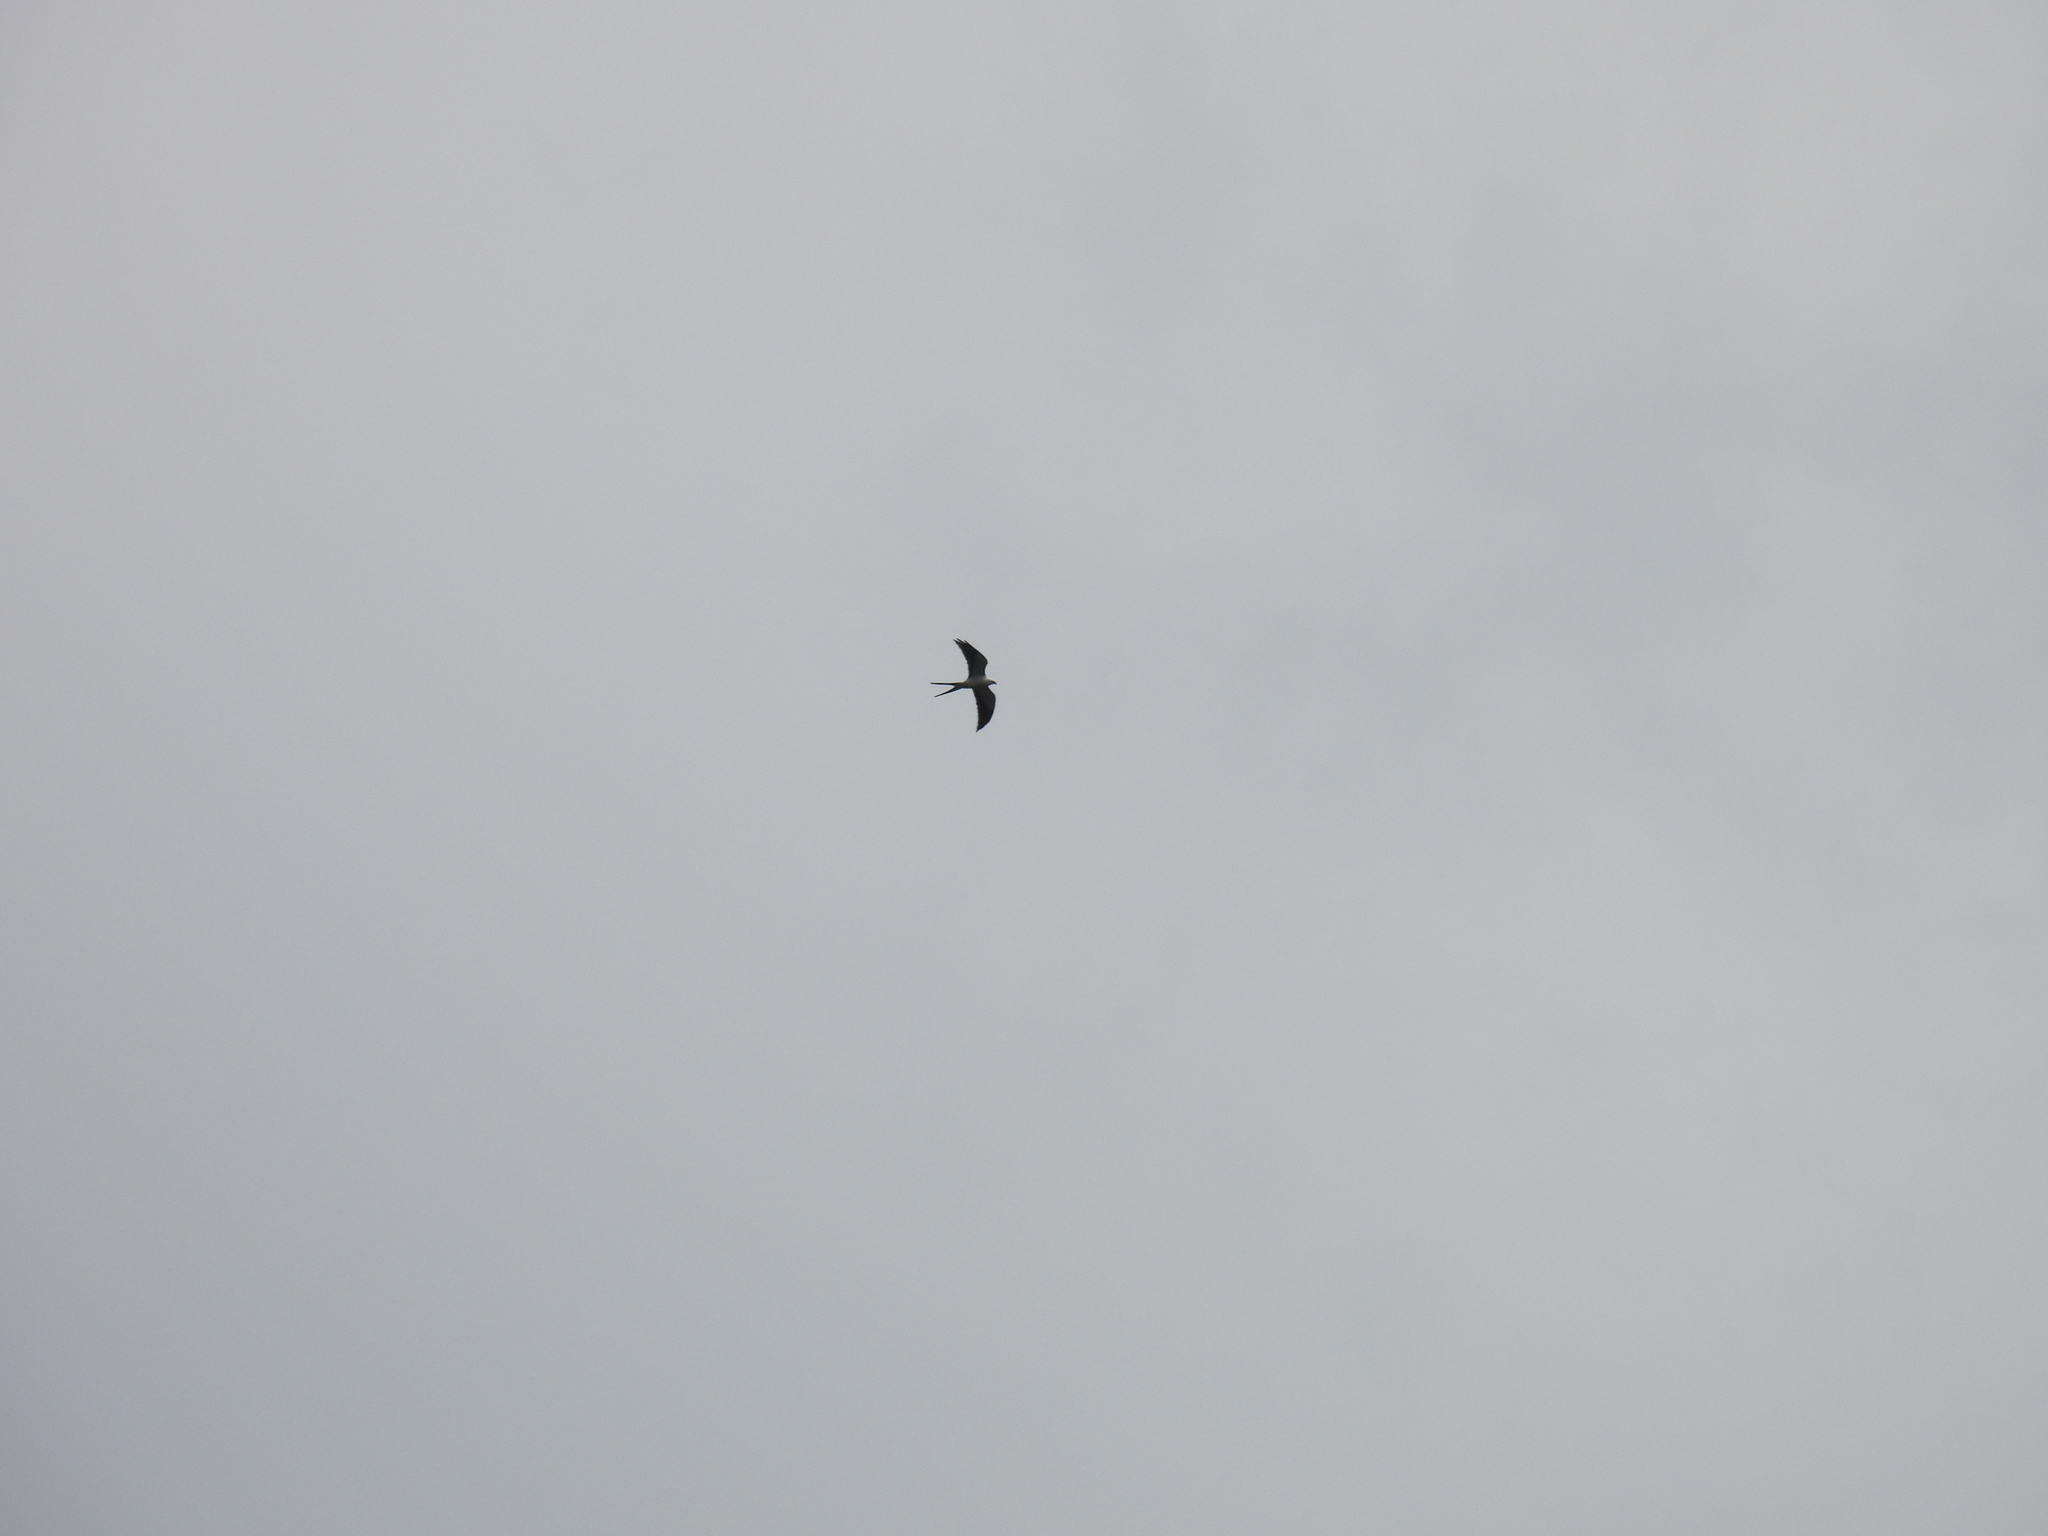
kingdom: Animalia
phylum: Chordata
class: Aves
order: Accipitriformes
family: Accipitridae
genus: Elanoides
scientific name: Elanoides forficatus
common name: Swallow-tailed kite
